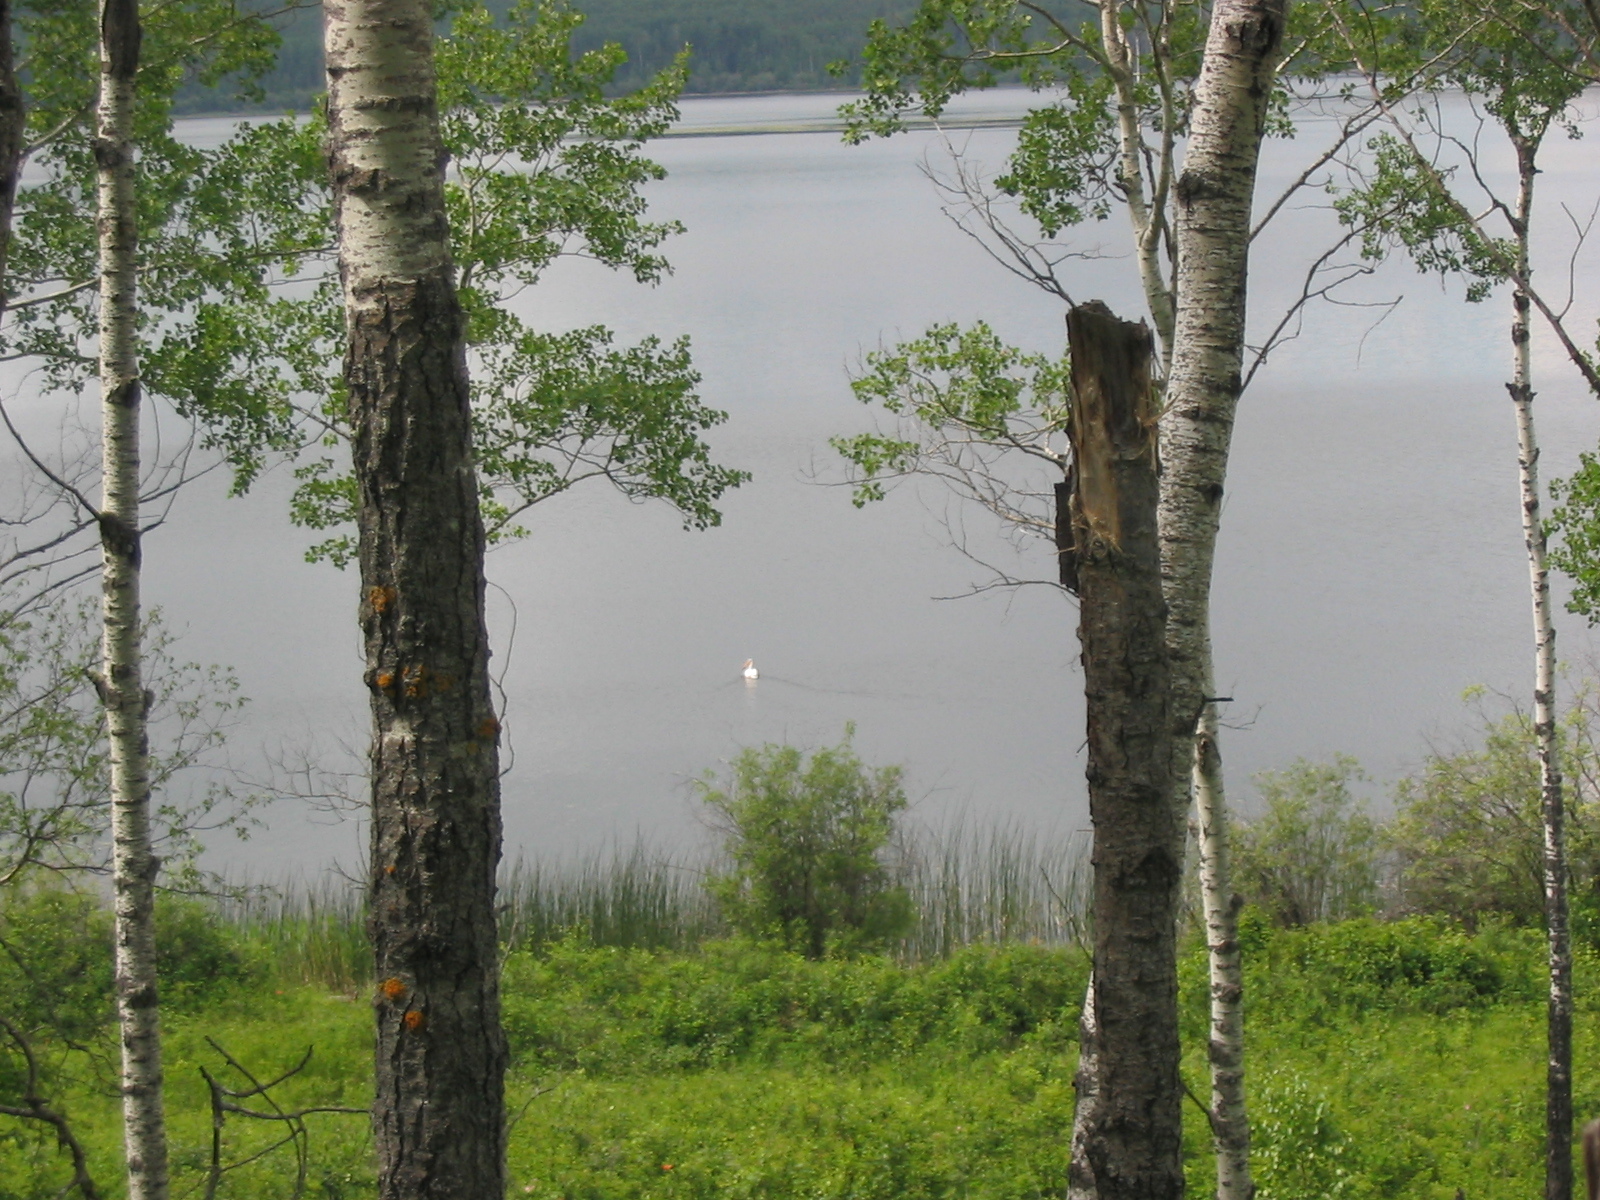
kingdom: Animalia
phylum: Chordata
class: Aves
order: Pelecaniformes
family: Pelecanidae
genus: Pelecanus
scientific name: Pelecanus erythrorhynchos
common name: American white pelican
